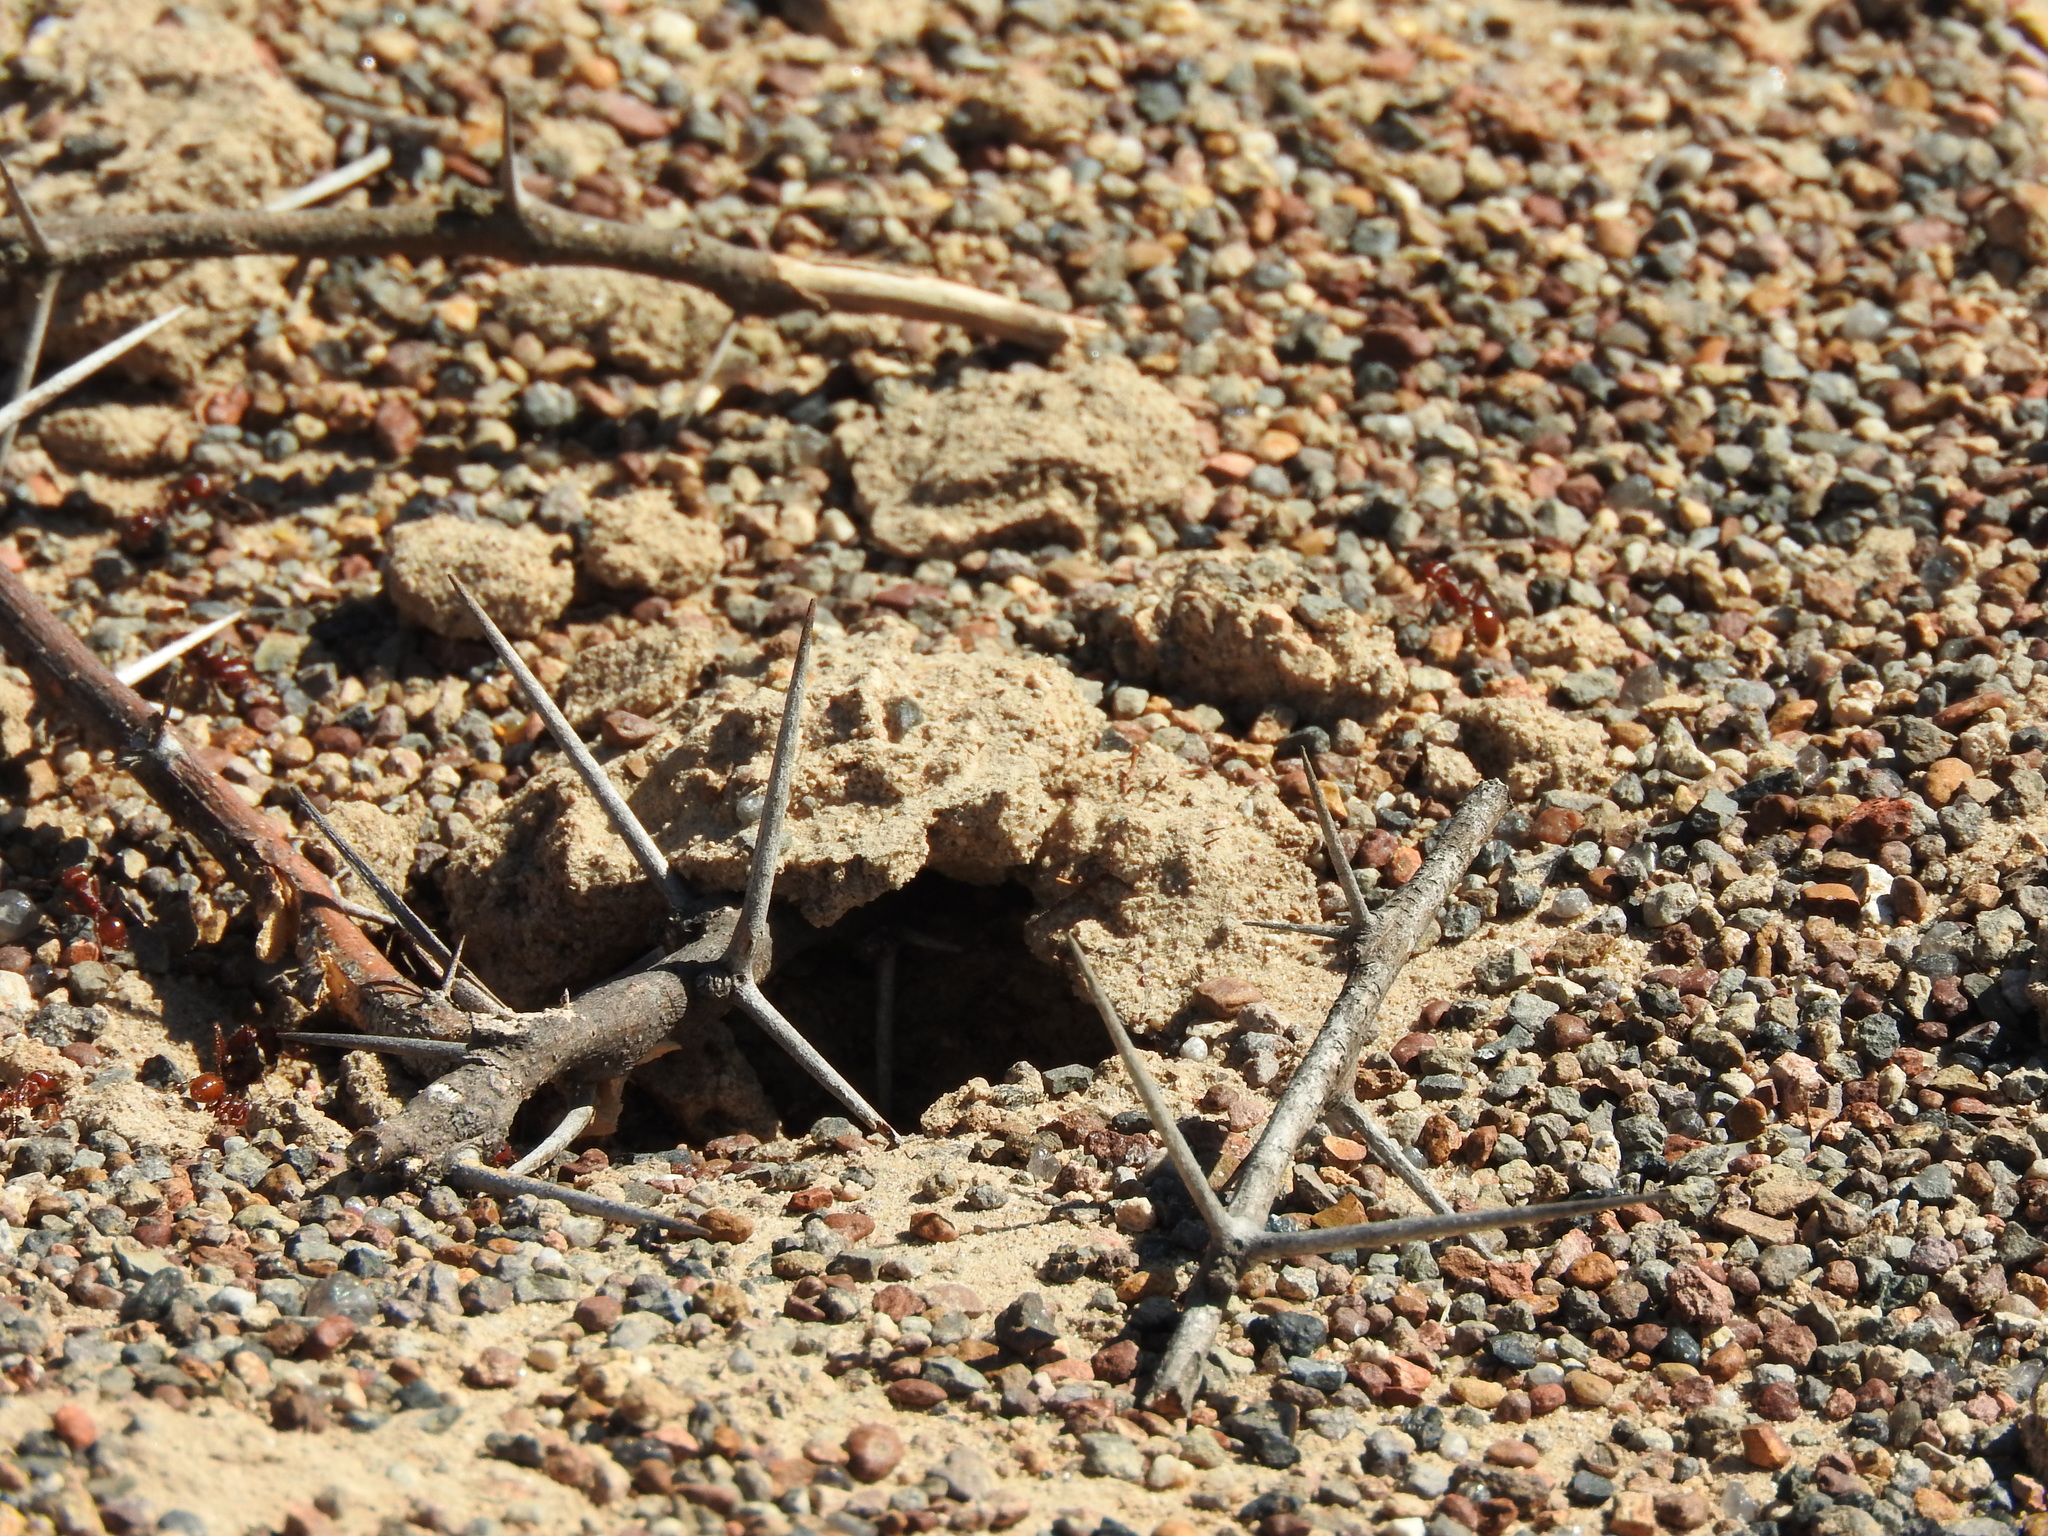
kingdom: Animalia
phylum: Arthropoda
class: Insecta
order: Hymenoptera
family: Formicidae
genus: Pogonomyrmex
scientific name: Pogonomyrmex barbatus
